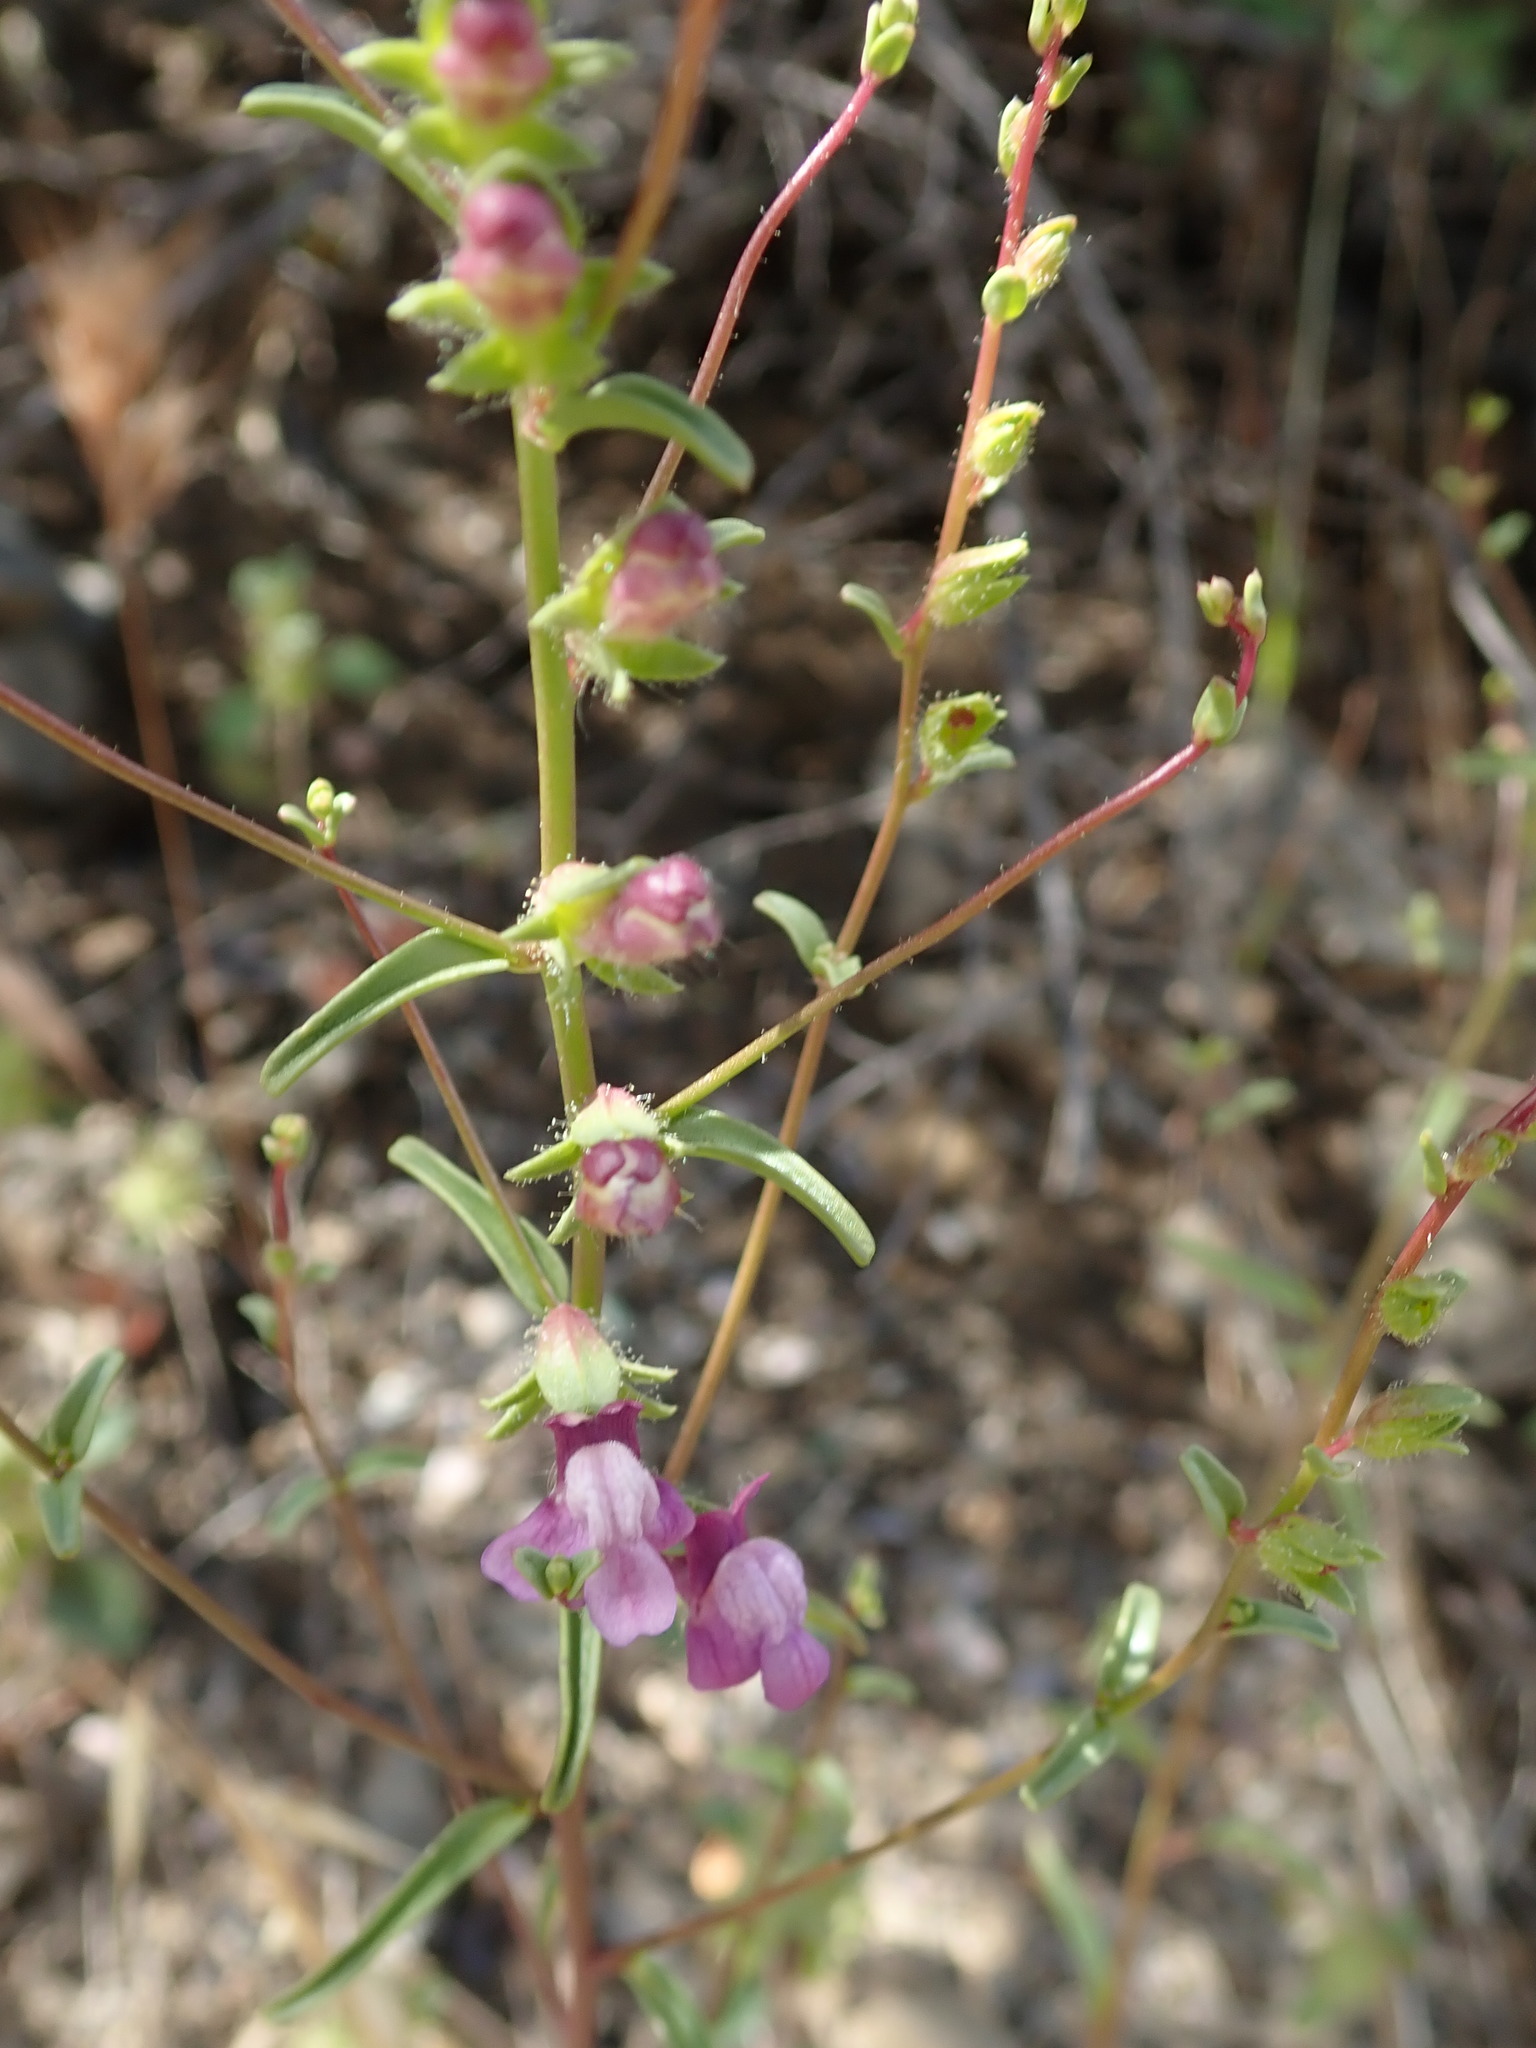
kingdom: Plantae
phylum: Tracheophyta
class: Magnoliopsida
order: Lamiales
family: Plantaginaceae
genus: Sairocarpus
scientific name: Sairocarpus vexillocalyculatus
